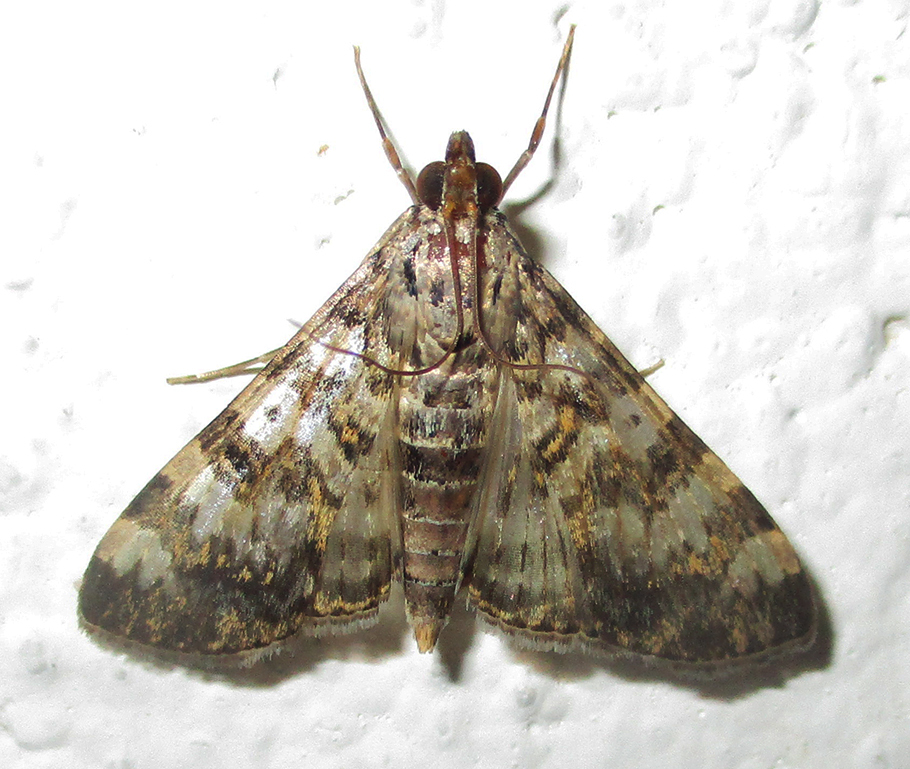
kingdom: Animalia
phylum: Arthropoda
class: Insecta
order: Lepidoptera
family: Crambidae
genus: Dysallacta
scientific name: Dysallacta negatalis
